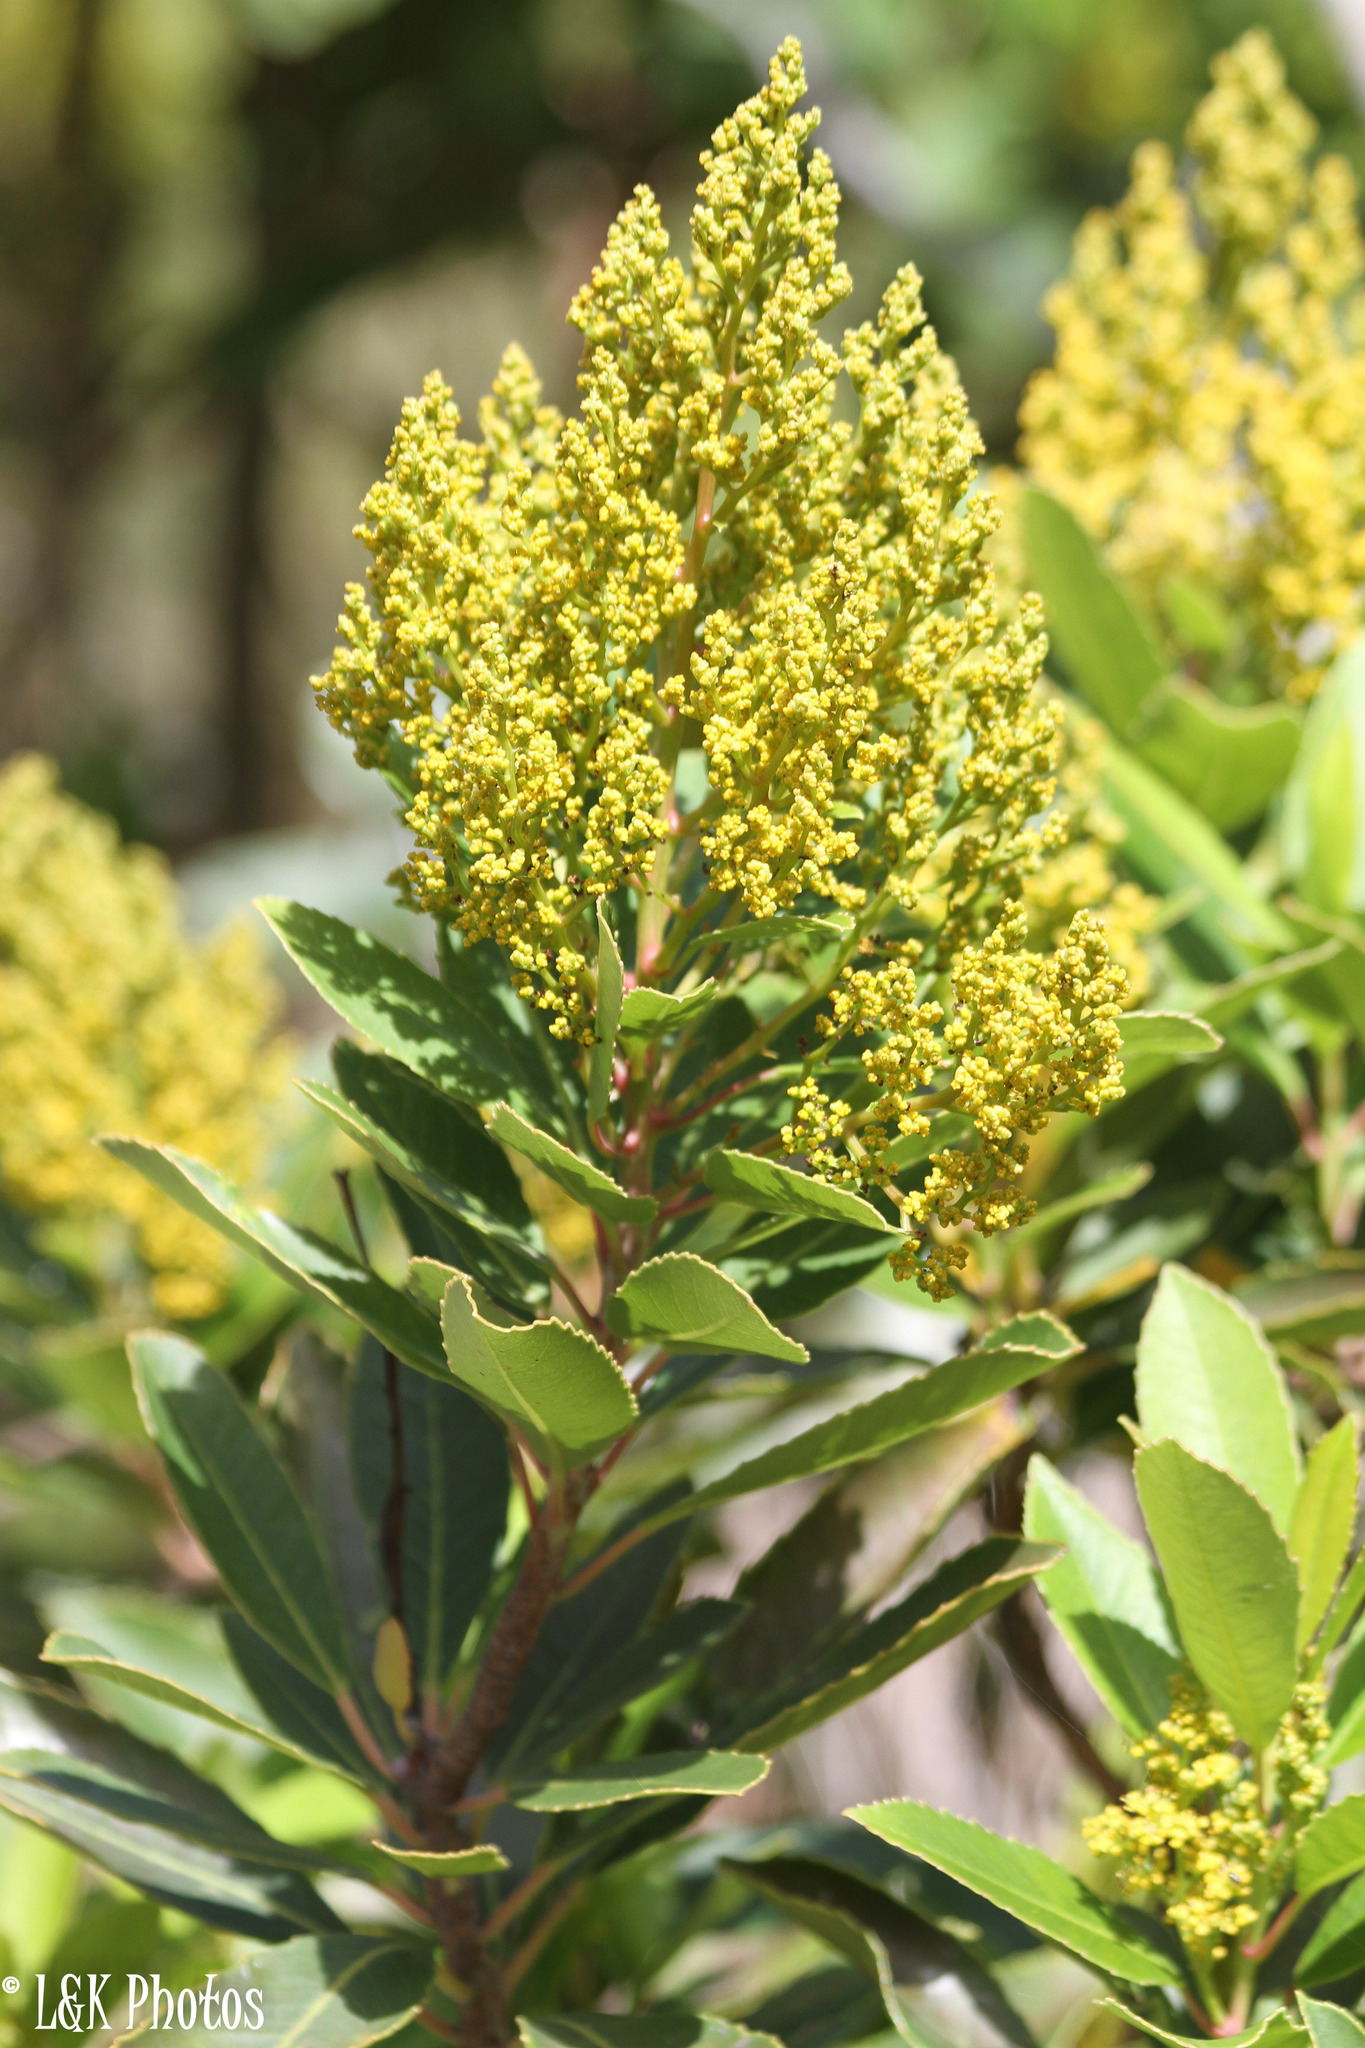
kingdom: Plantae
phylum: Tracheophyta
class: Magnoliopsida
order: Sapindales
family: Anacardiaceae
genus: Laurophyllus
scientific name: Laurophyllus capensis
